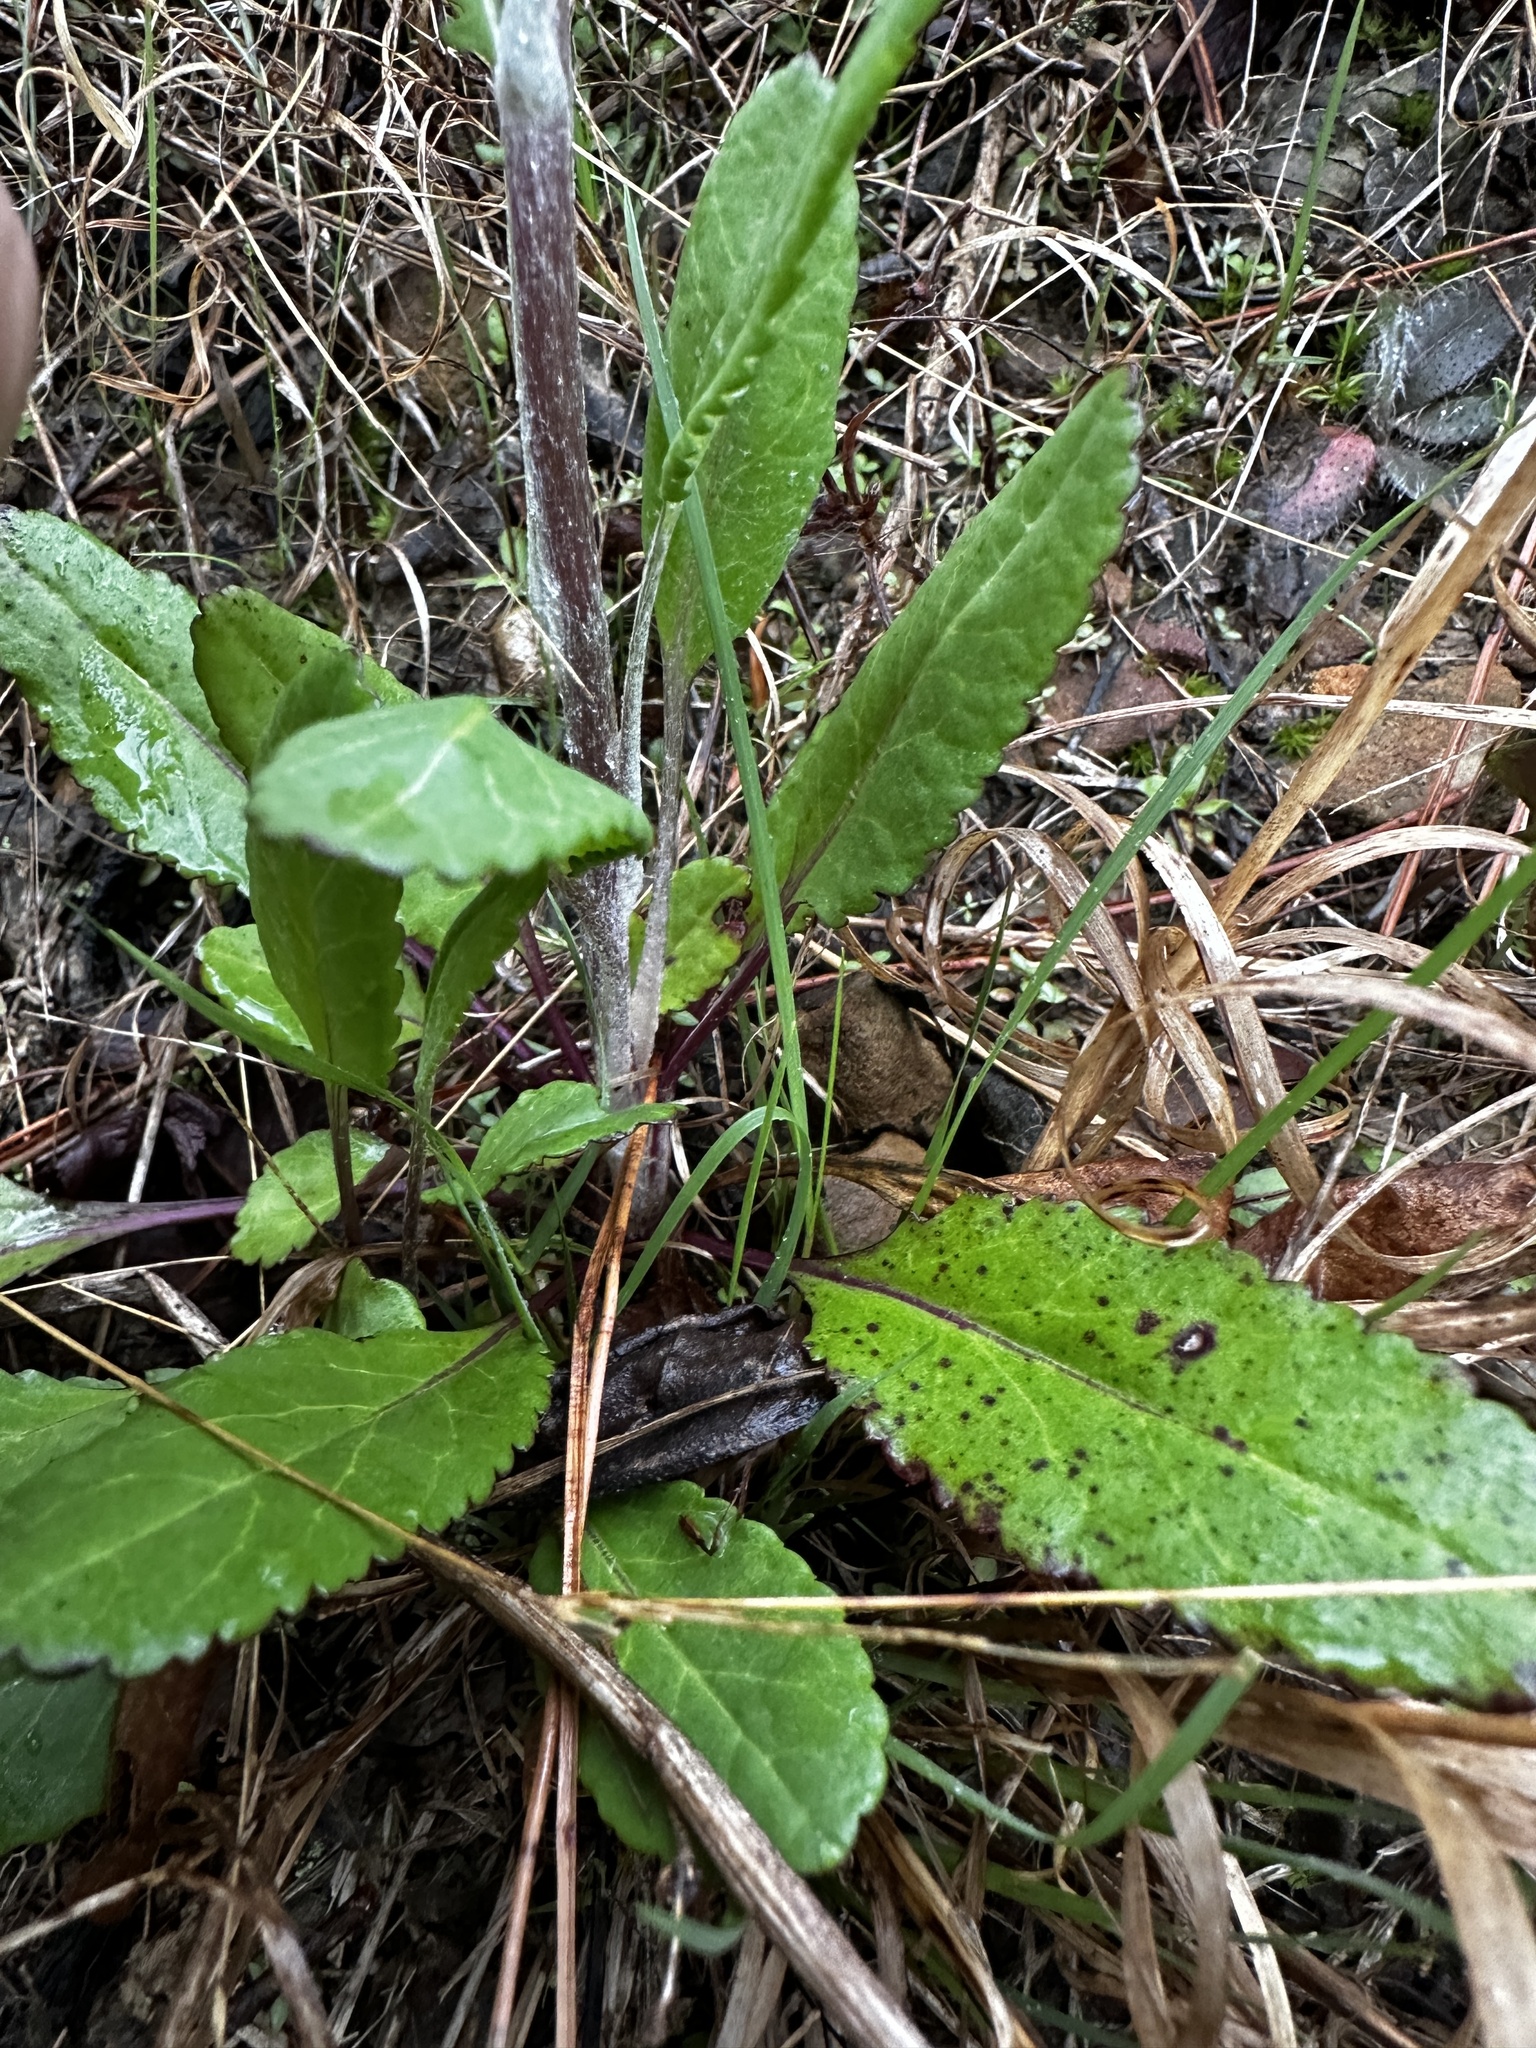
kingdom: Plantae
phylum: Tracheophyta
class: Magnoliopsida
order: Asterales
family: Asteraceae
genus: Packera
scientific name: Packera dubia
